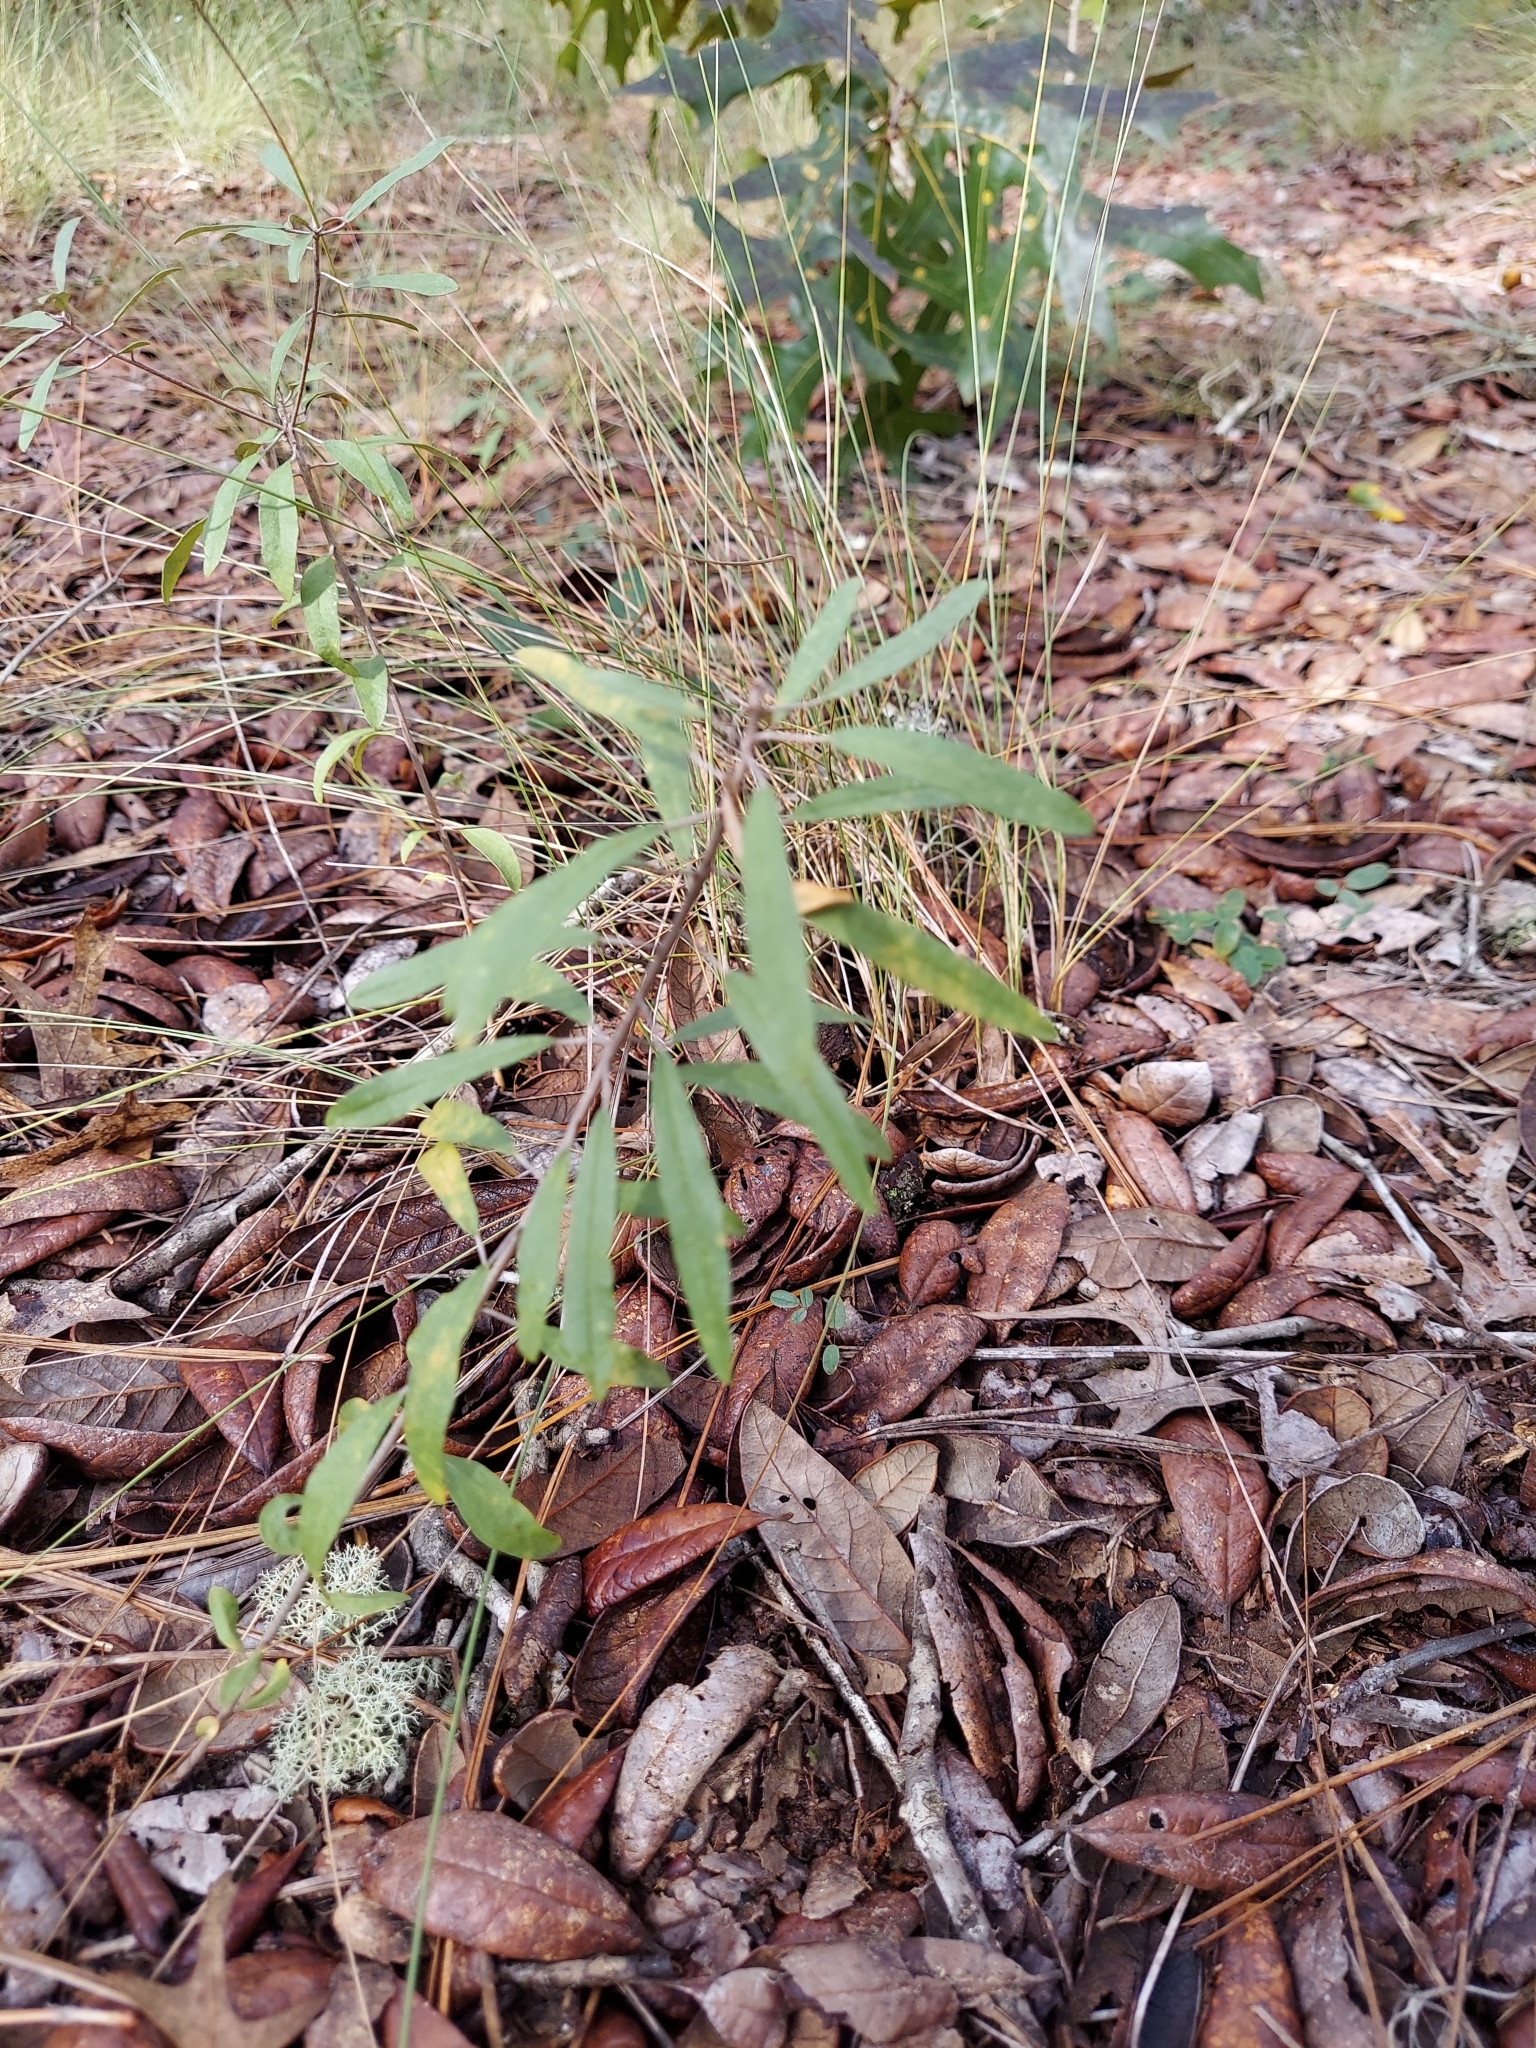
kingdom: Plantae
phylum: Tracheophyta
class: Magnoliopsida
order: Malpighiales
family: Euphorbiaceae
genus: Croton
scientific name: Croton argyranthemus
